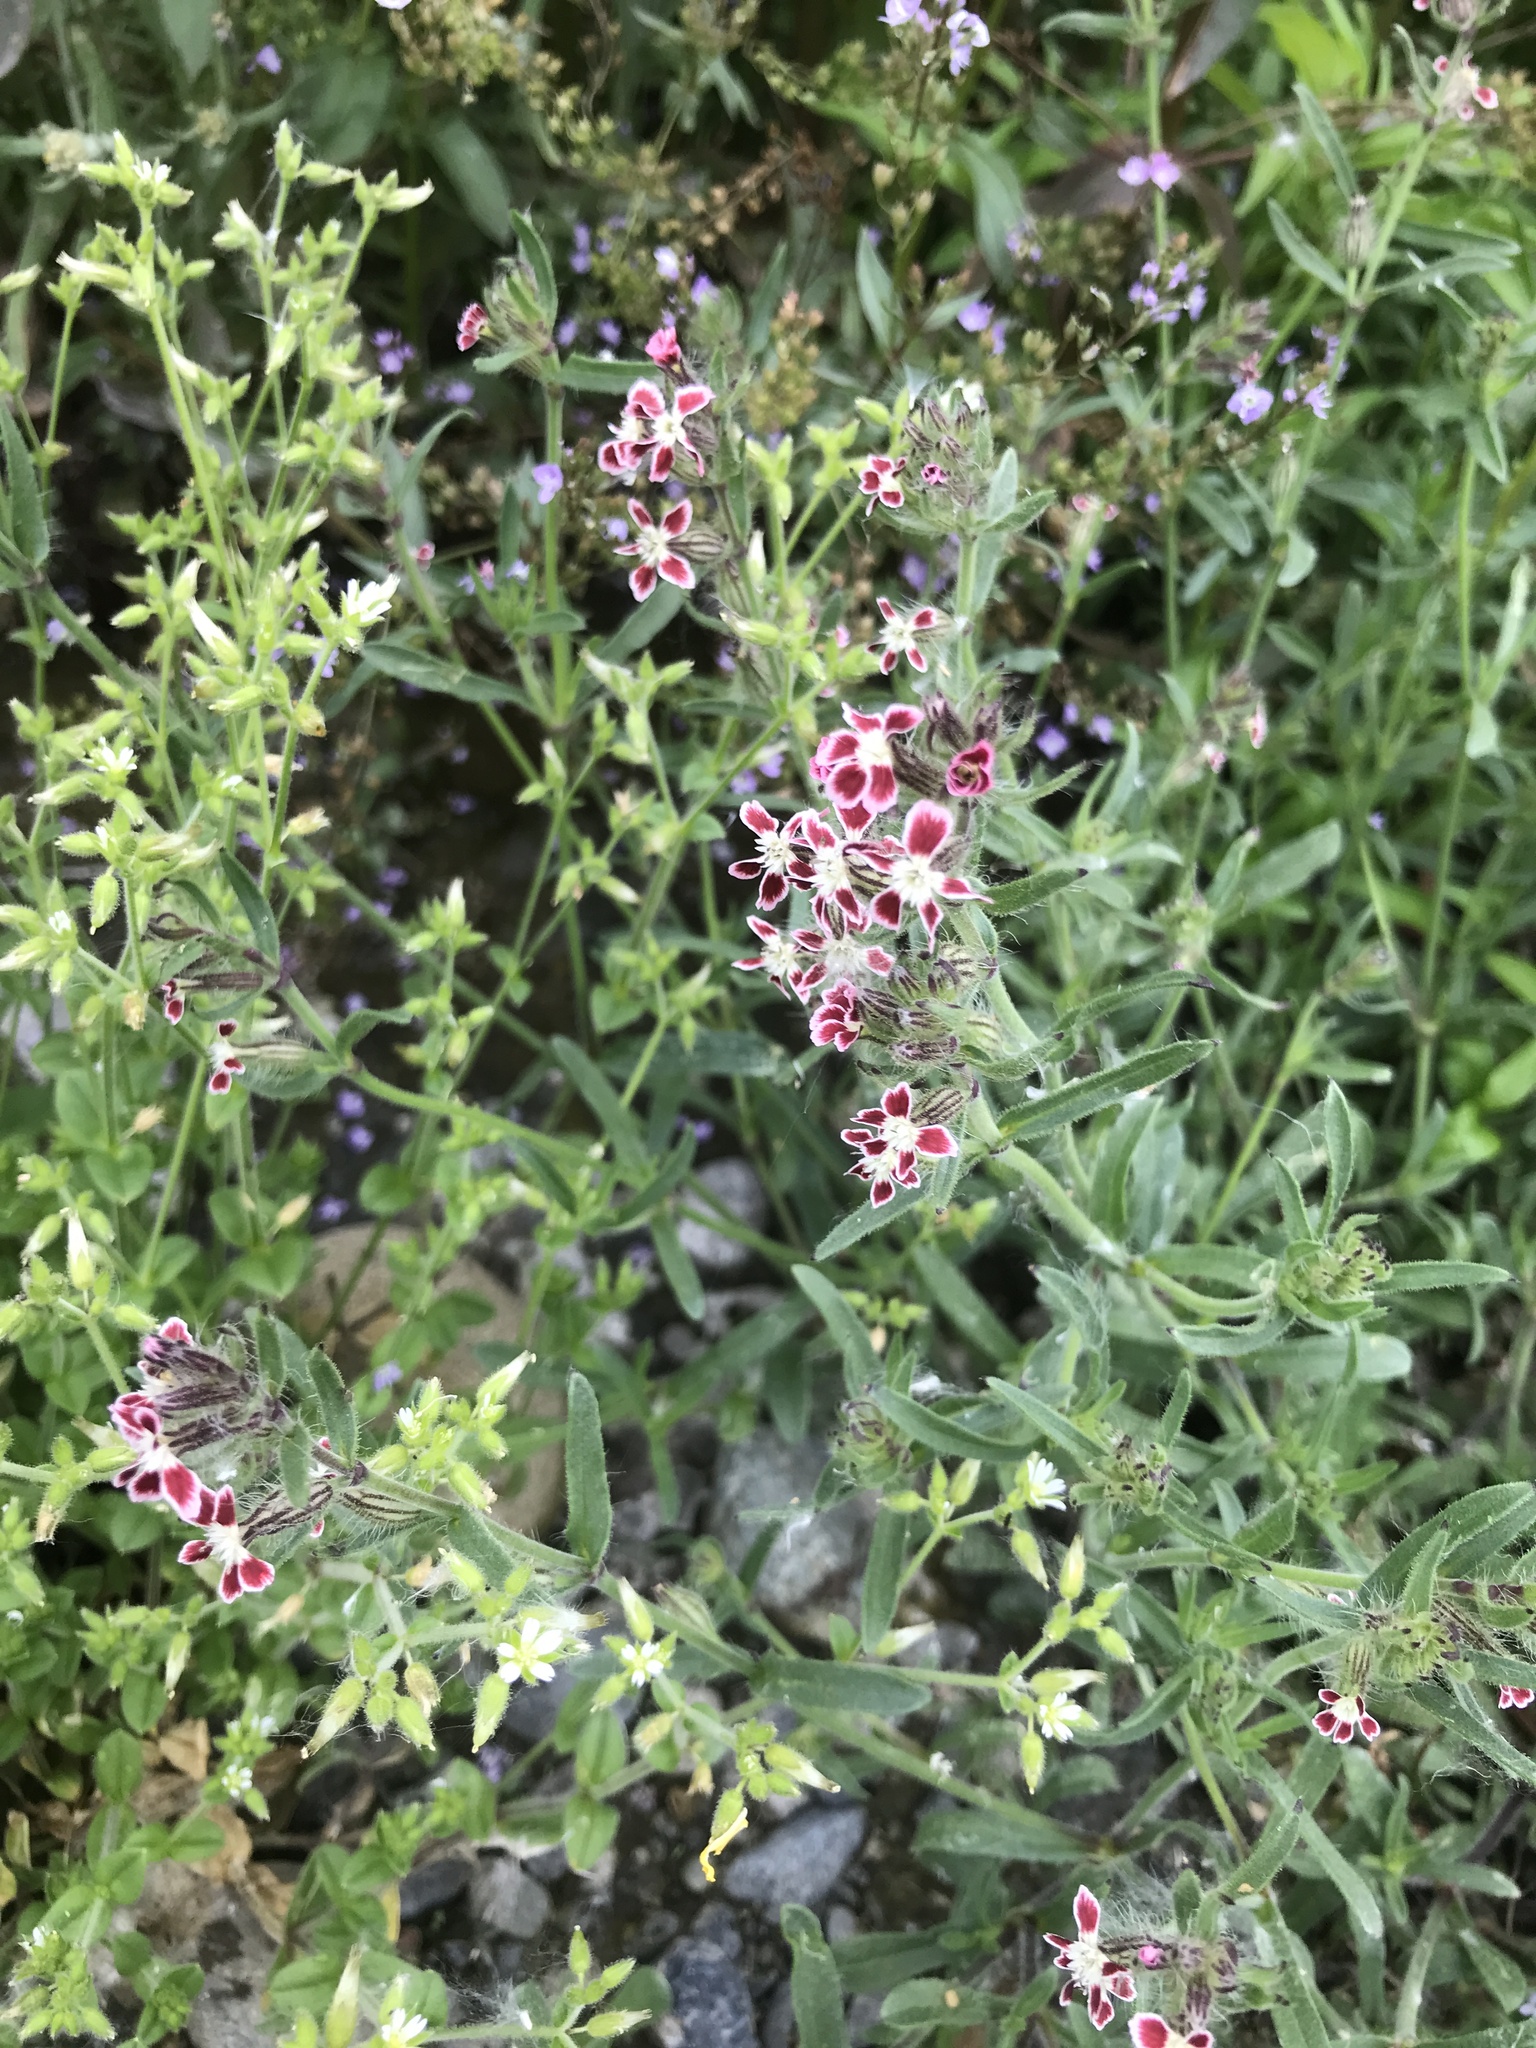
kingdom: Plantae
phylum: Tracheophyta
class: Magnoliopsida
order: Caryophyllales
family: Caryophyllaceae
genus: Silene
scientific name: Silene gallica
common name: Small-flowered catchfly
